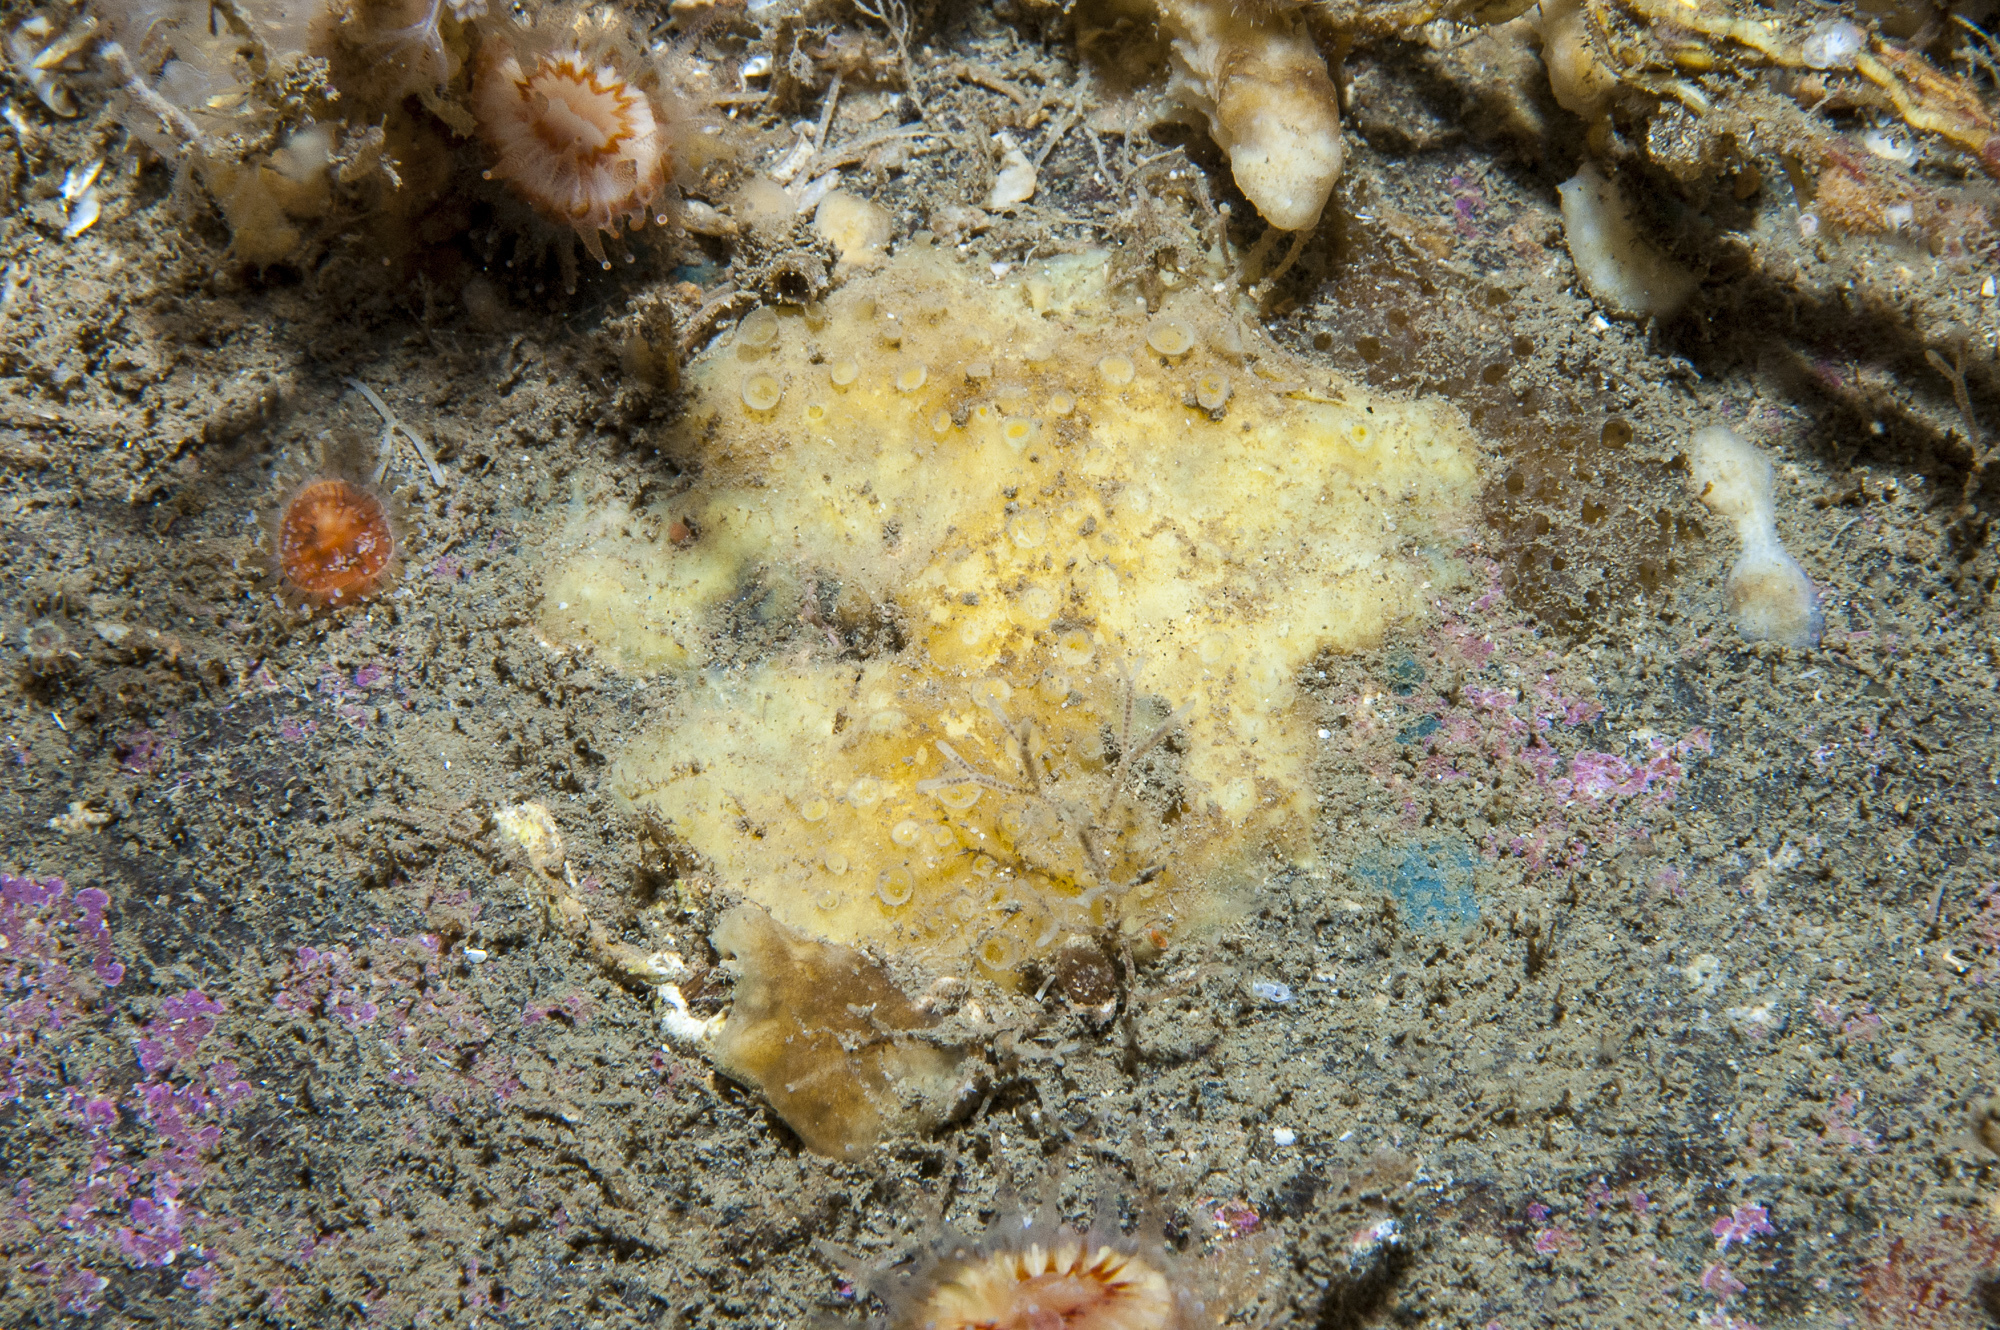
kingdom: Animalia
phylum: Porifera
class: Demospongiae
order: Poecilosclerida
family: Coelosphaeridae
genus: Lissodendoryx
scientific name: Lissodendoryx jenjonesae
